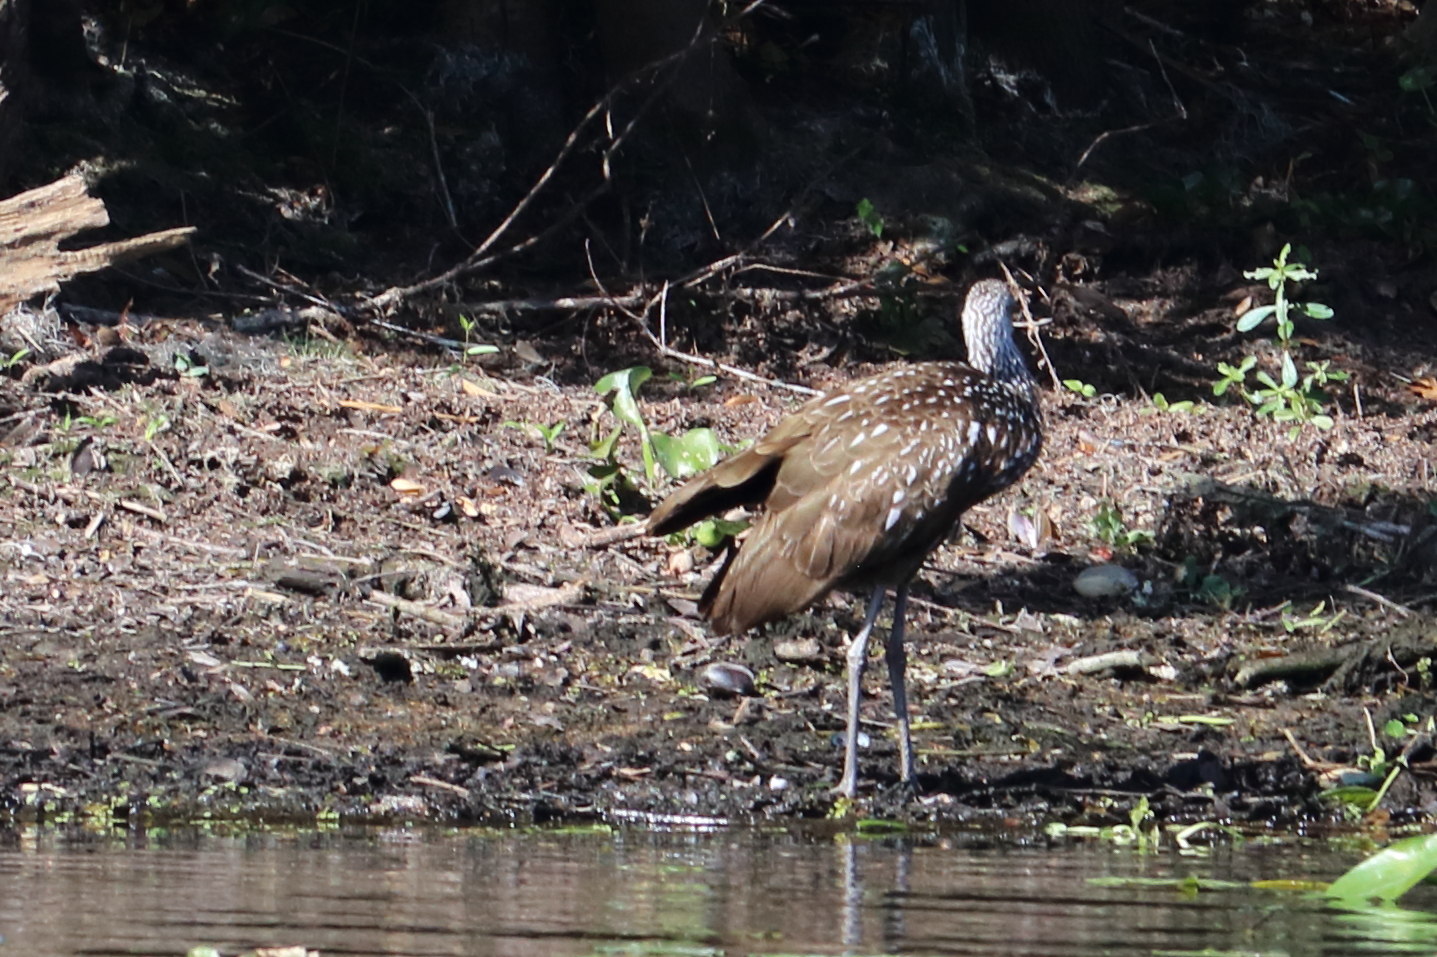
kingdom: Animalia
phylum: Chordata
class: Aves
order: Gruiformes
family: Aramidae
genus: Aramus
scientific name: Aramus guarauna
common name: Limpkin
